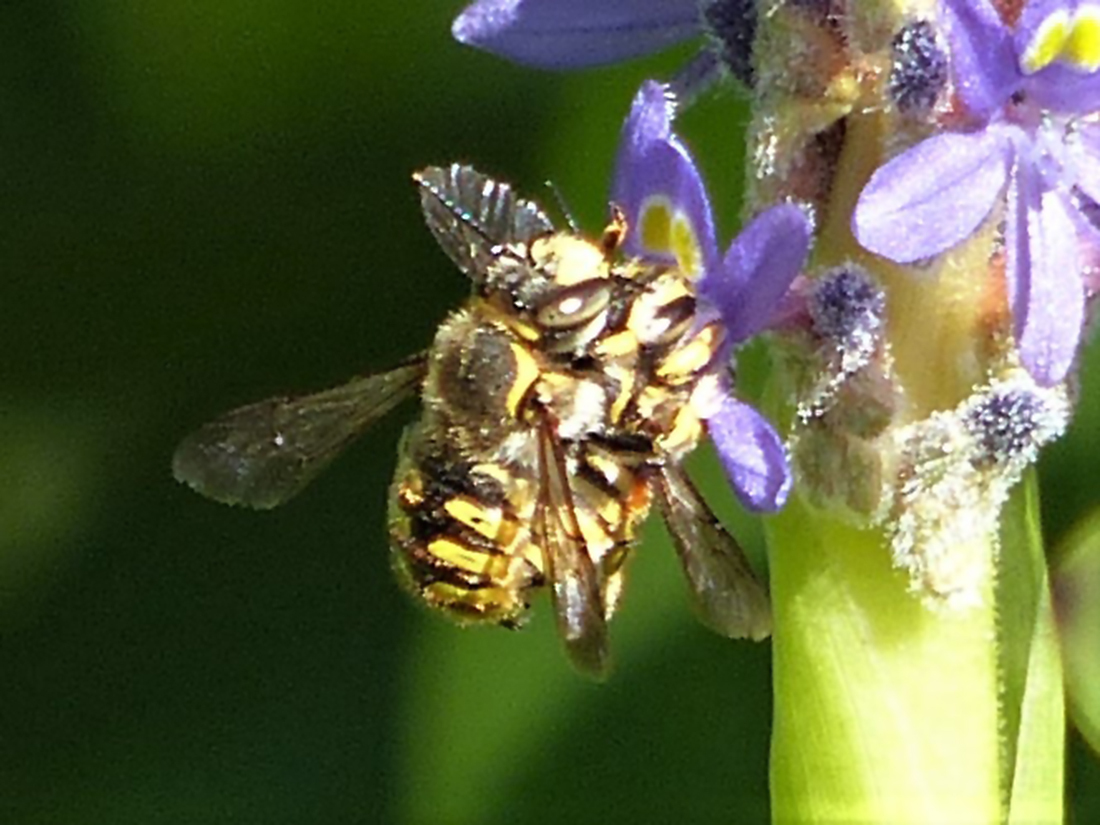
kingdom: Animalia
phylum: Arthropoda
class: Insecta
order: Hymenoptera
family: Megachilidae
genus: Anthidium
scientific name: Anthidium manicatum
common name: Wool carder bee
